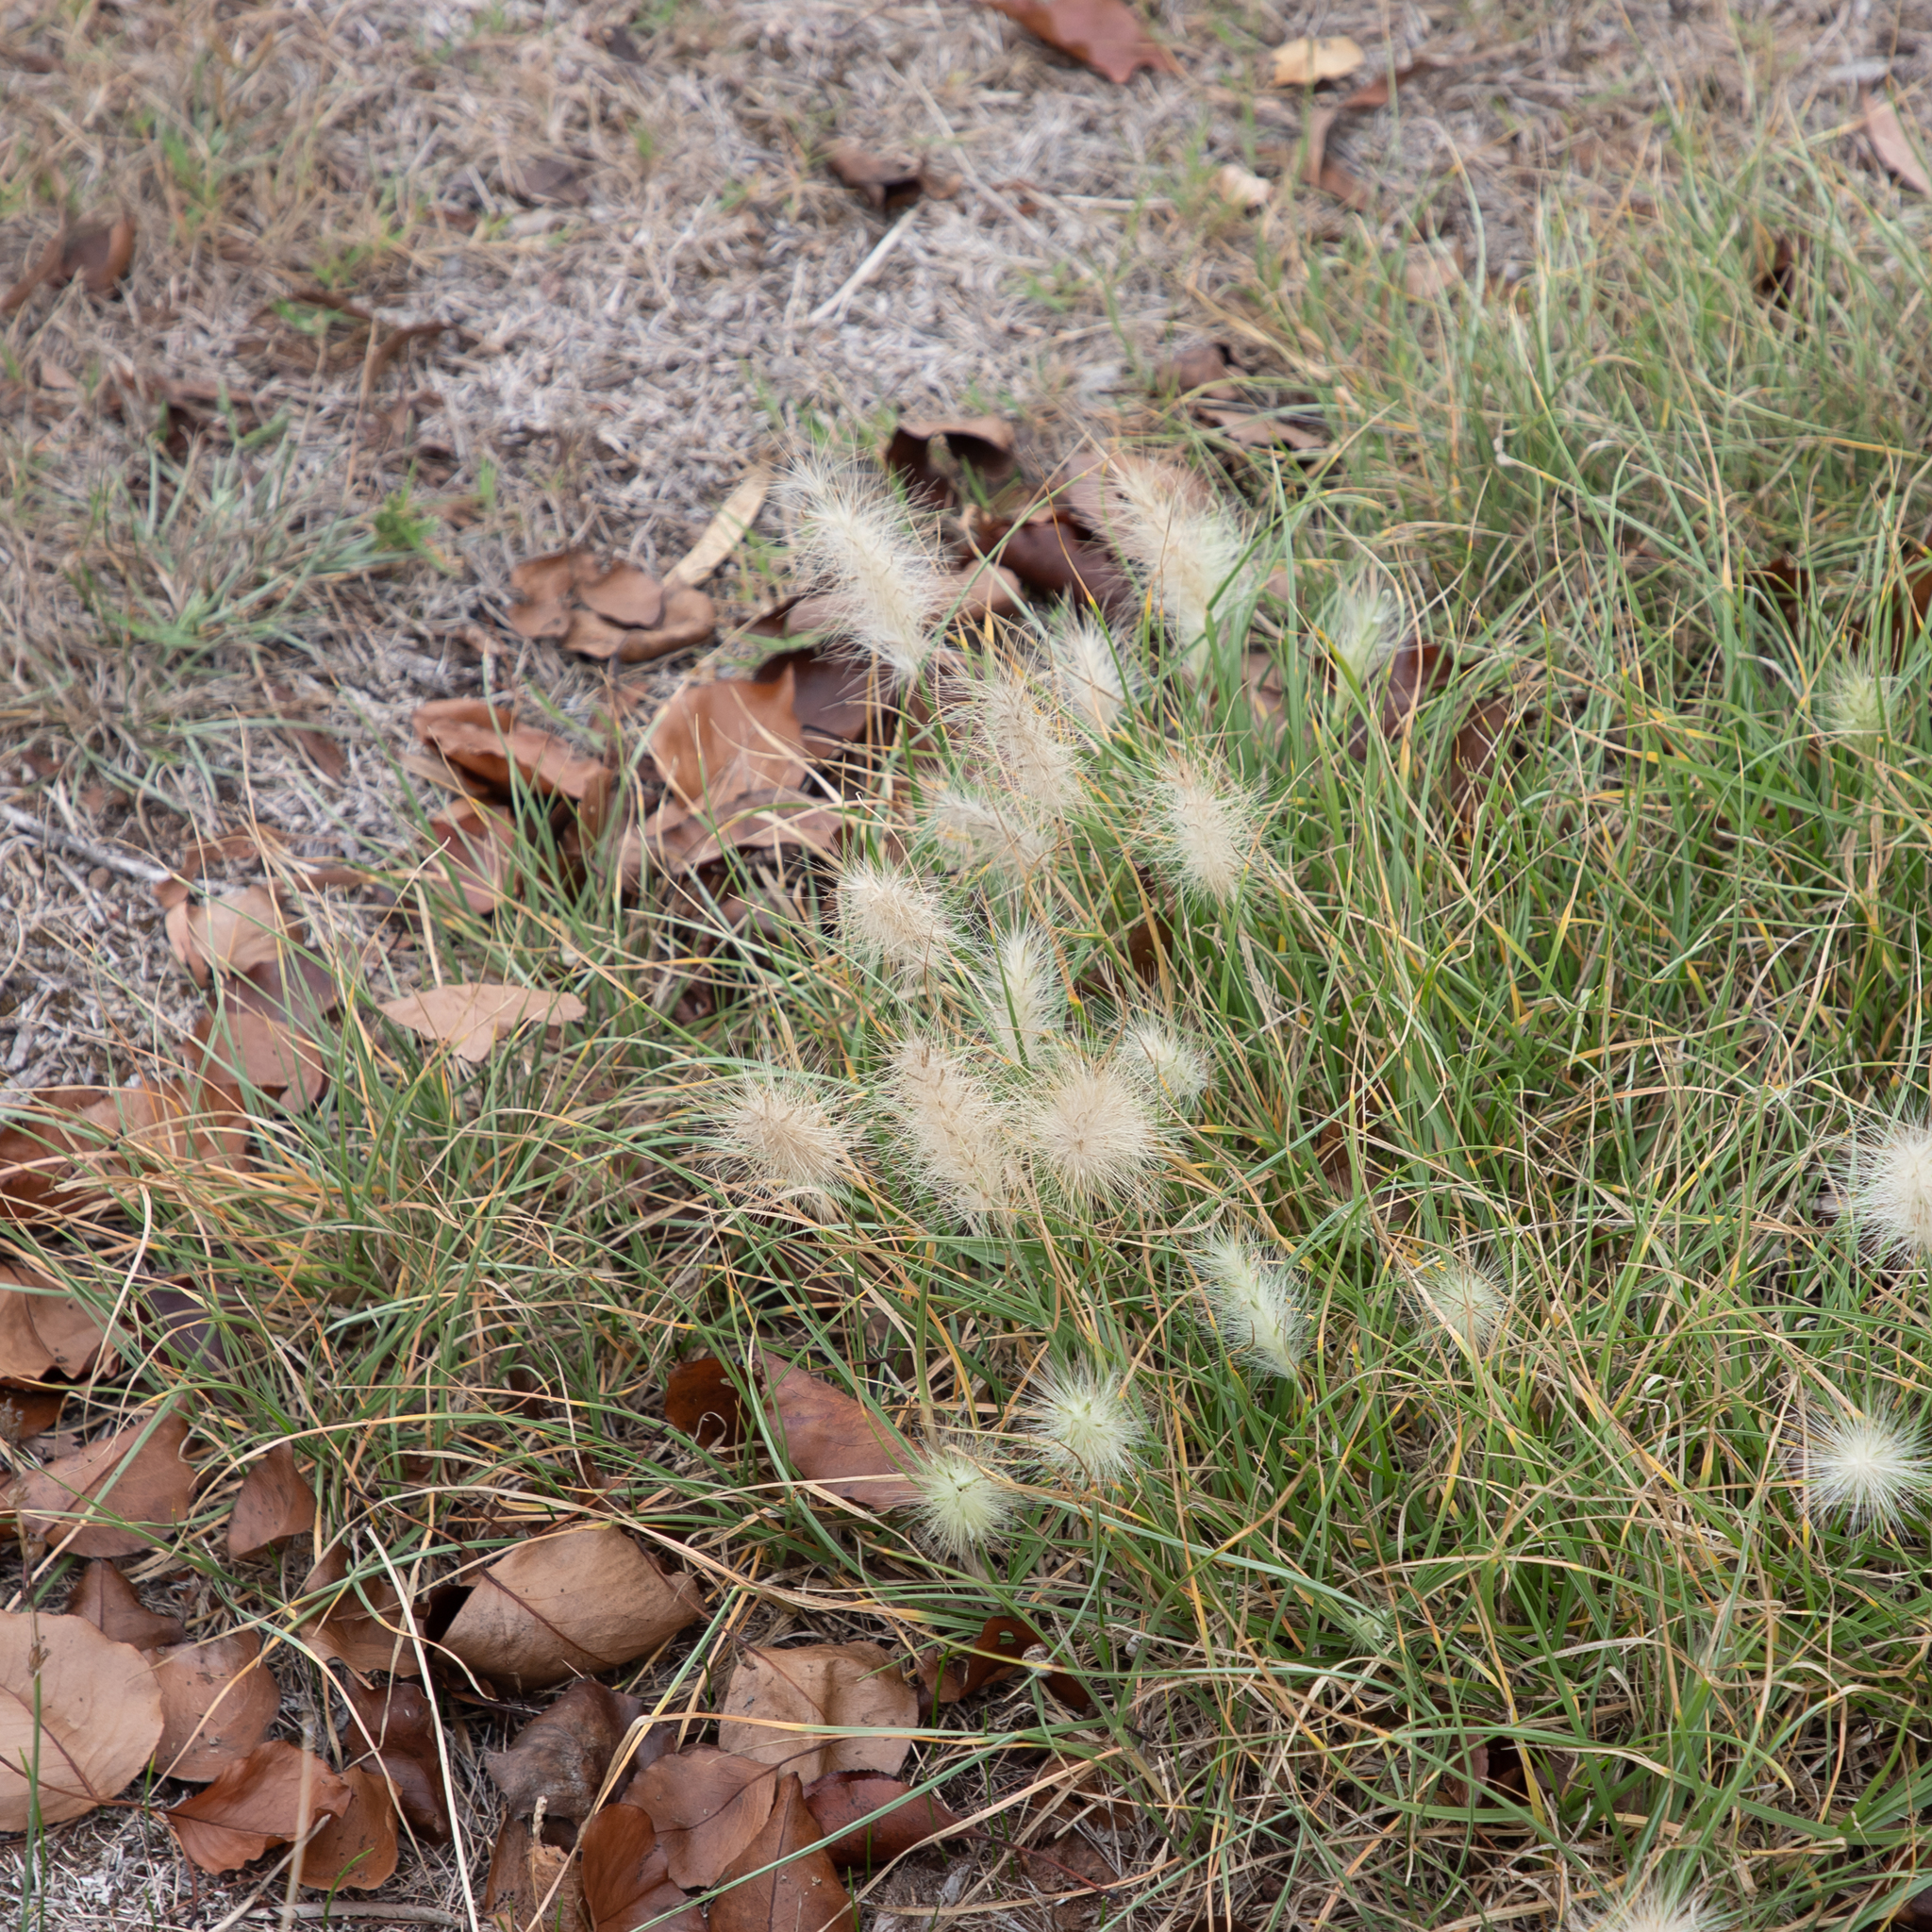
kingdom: Plantae
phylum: Tracheophyta
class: Liliopsida
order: Poales
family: Poaceae
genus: Cenchrus
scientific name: Cenchrus longisetus
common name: Feathertop
